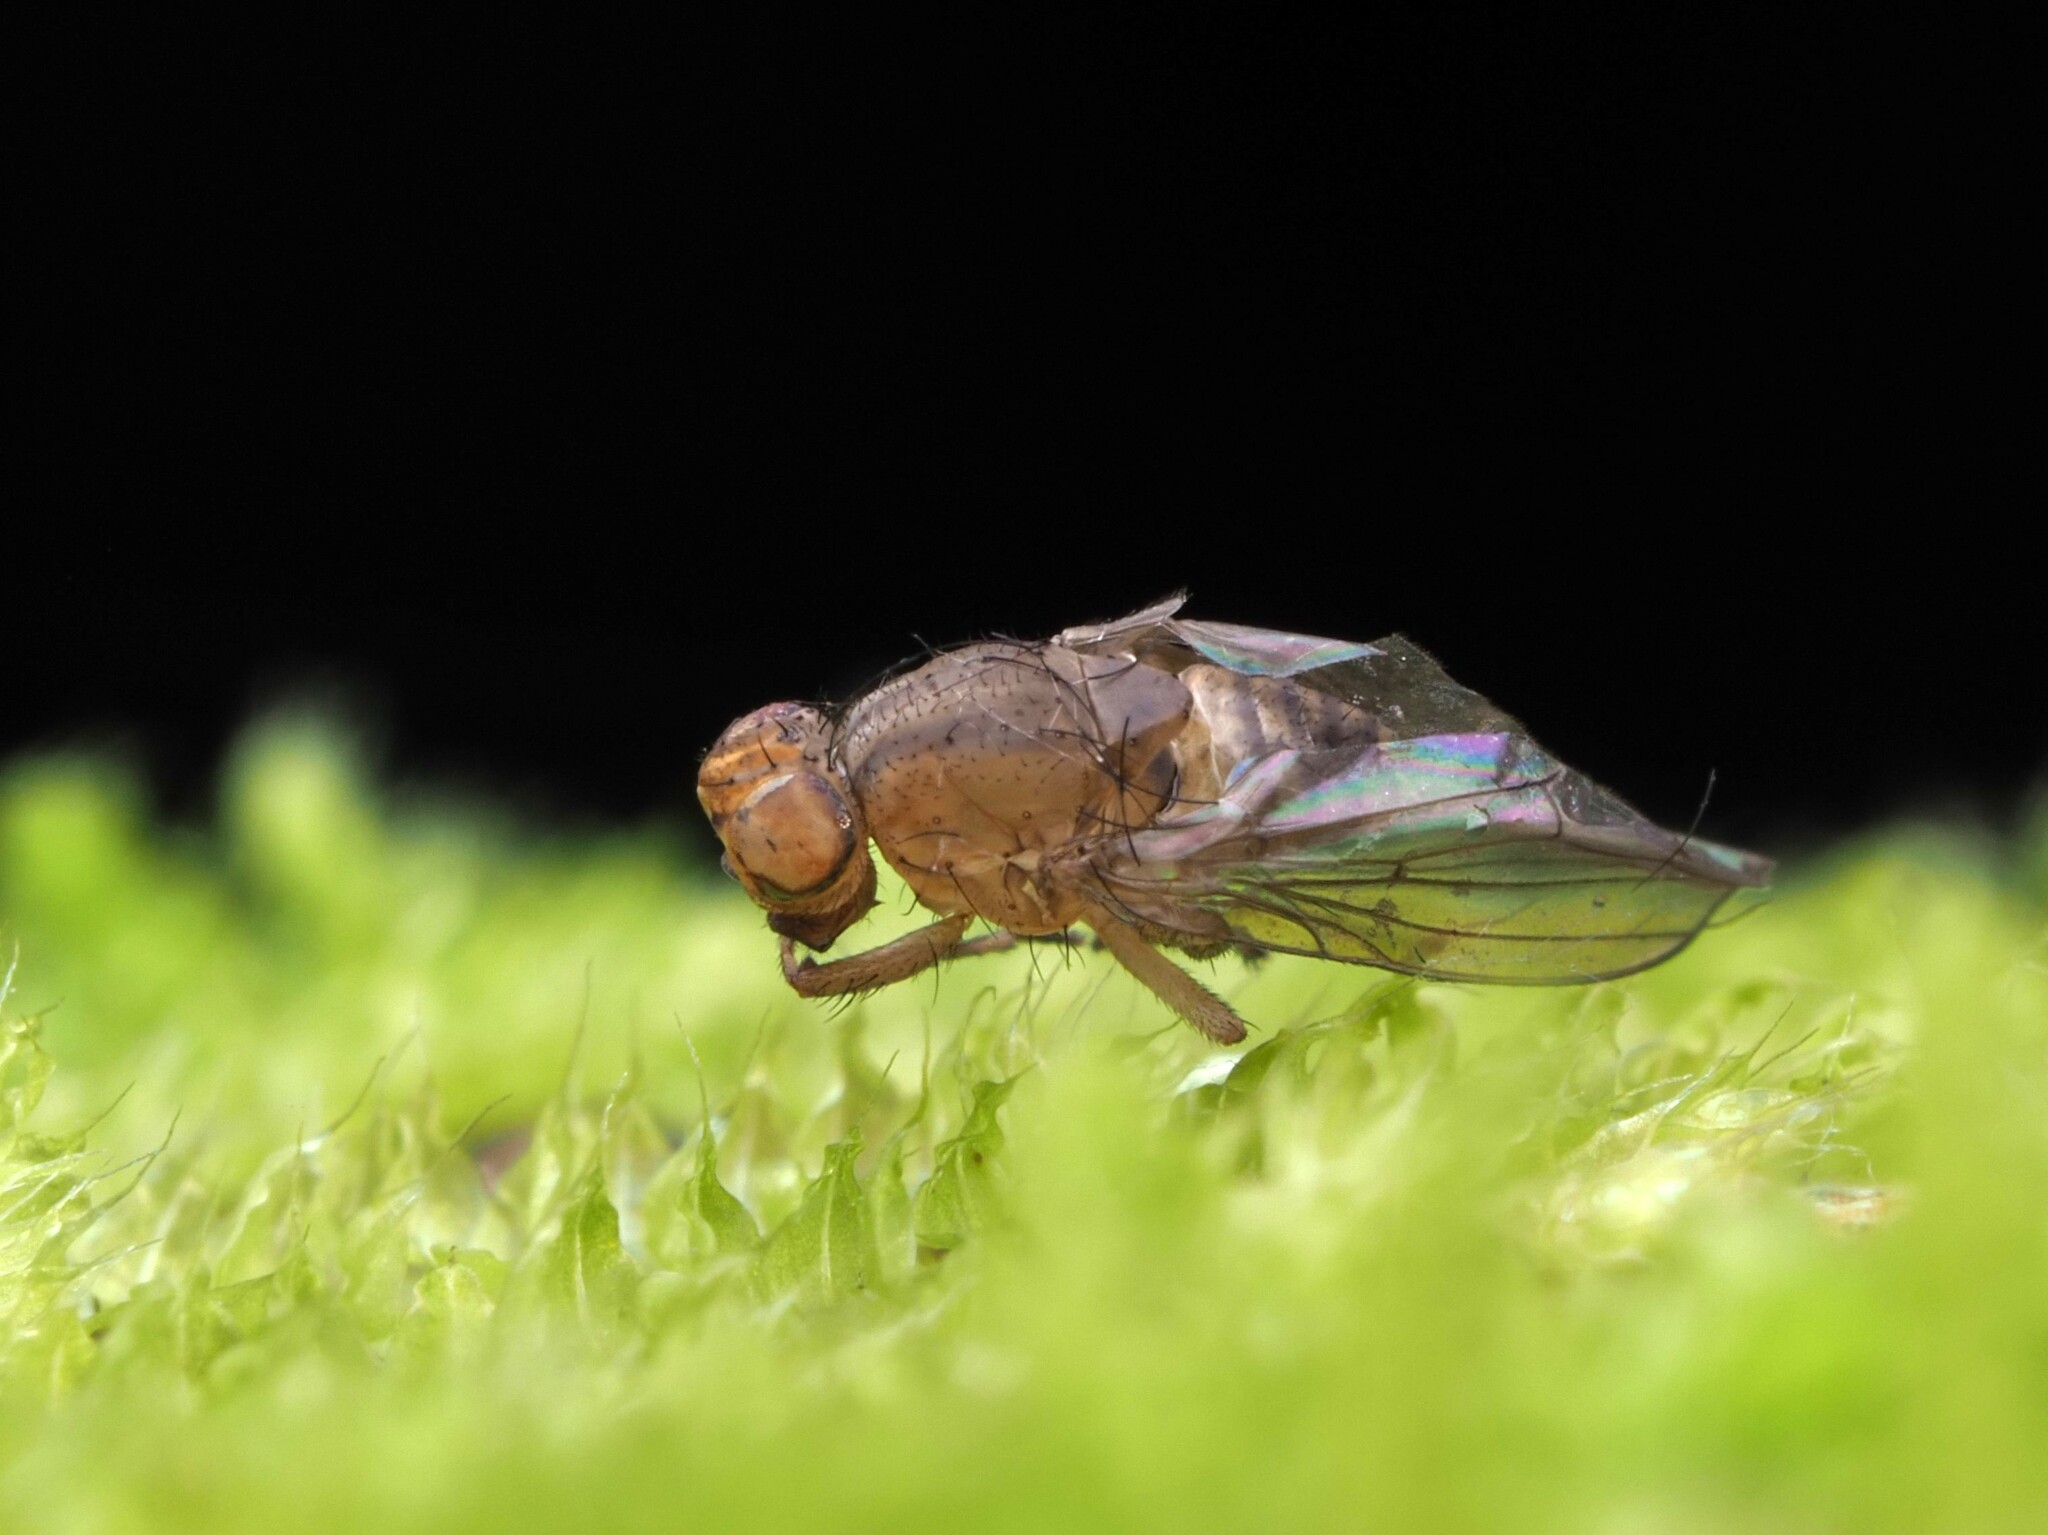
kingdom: Animalia
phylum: Arthropoda
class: Insecta
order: Diptera
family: Lauxaniidae
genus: Sapromyza
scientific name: Sapromyza neozelandica
